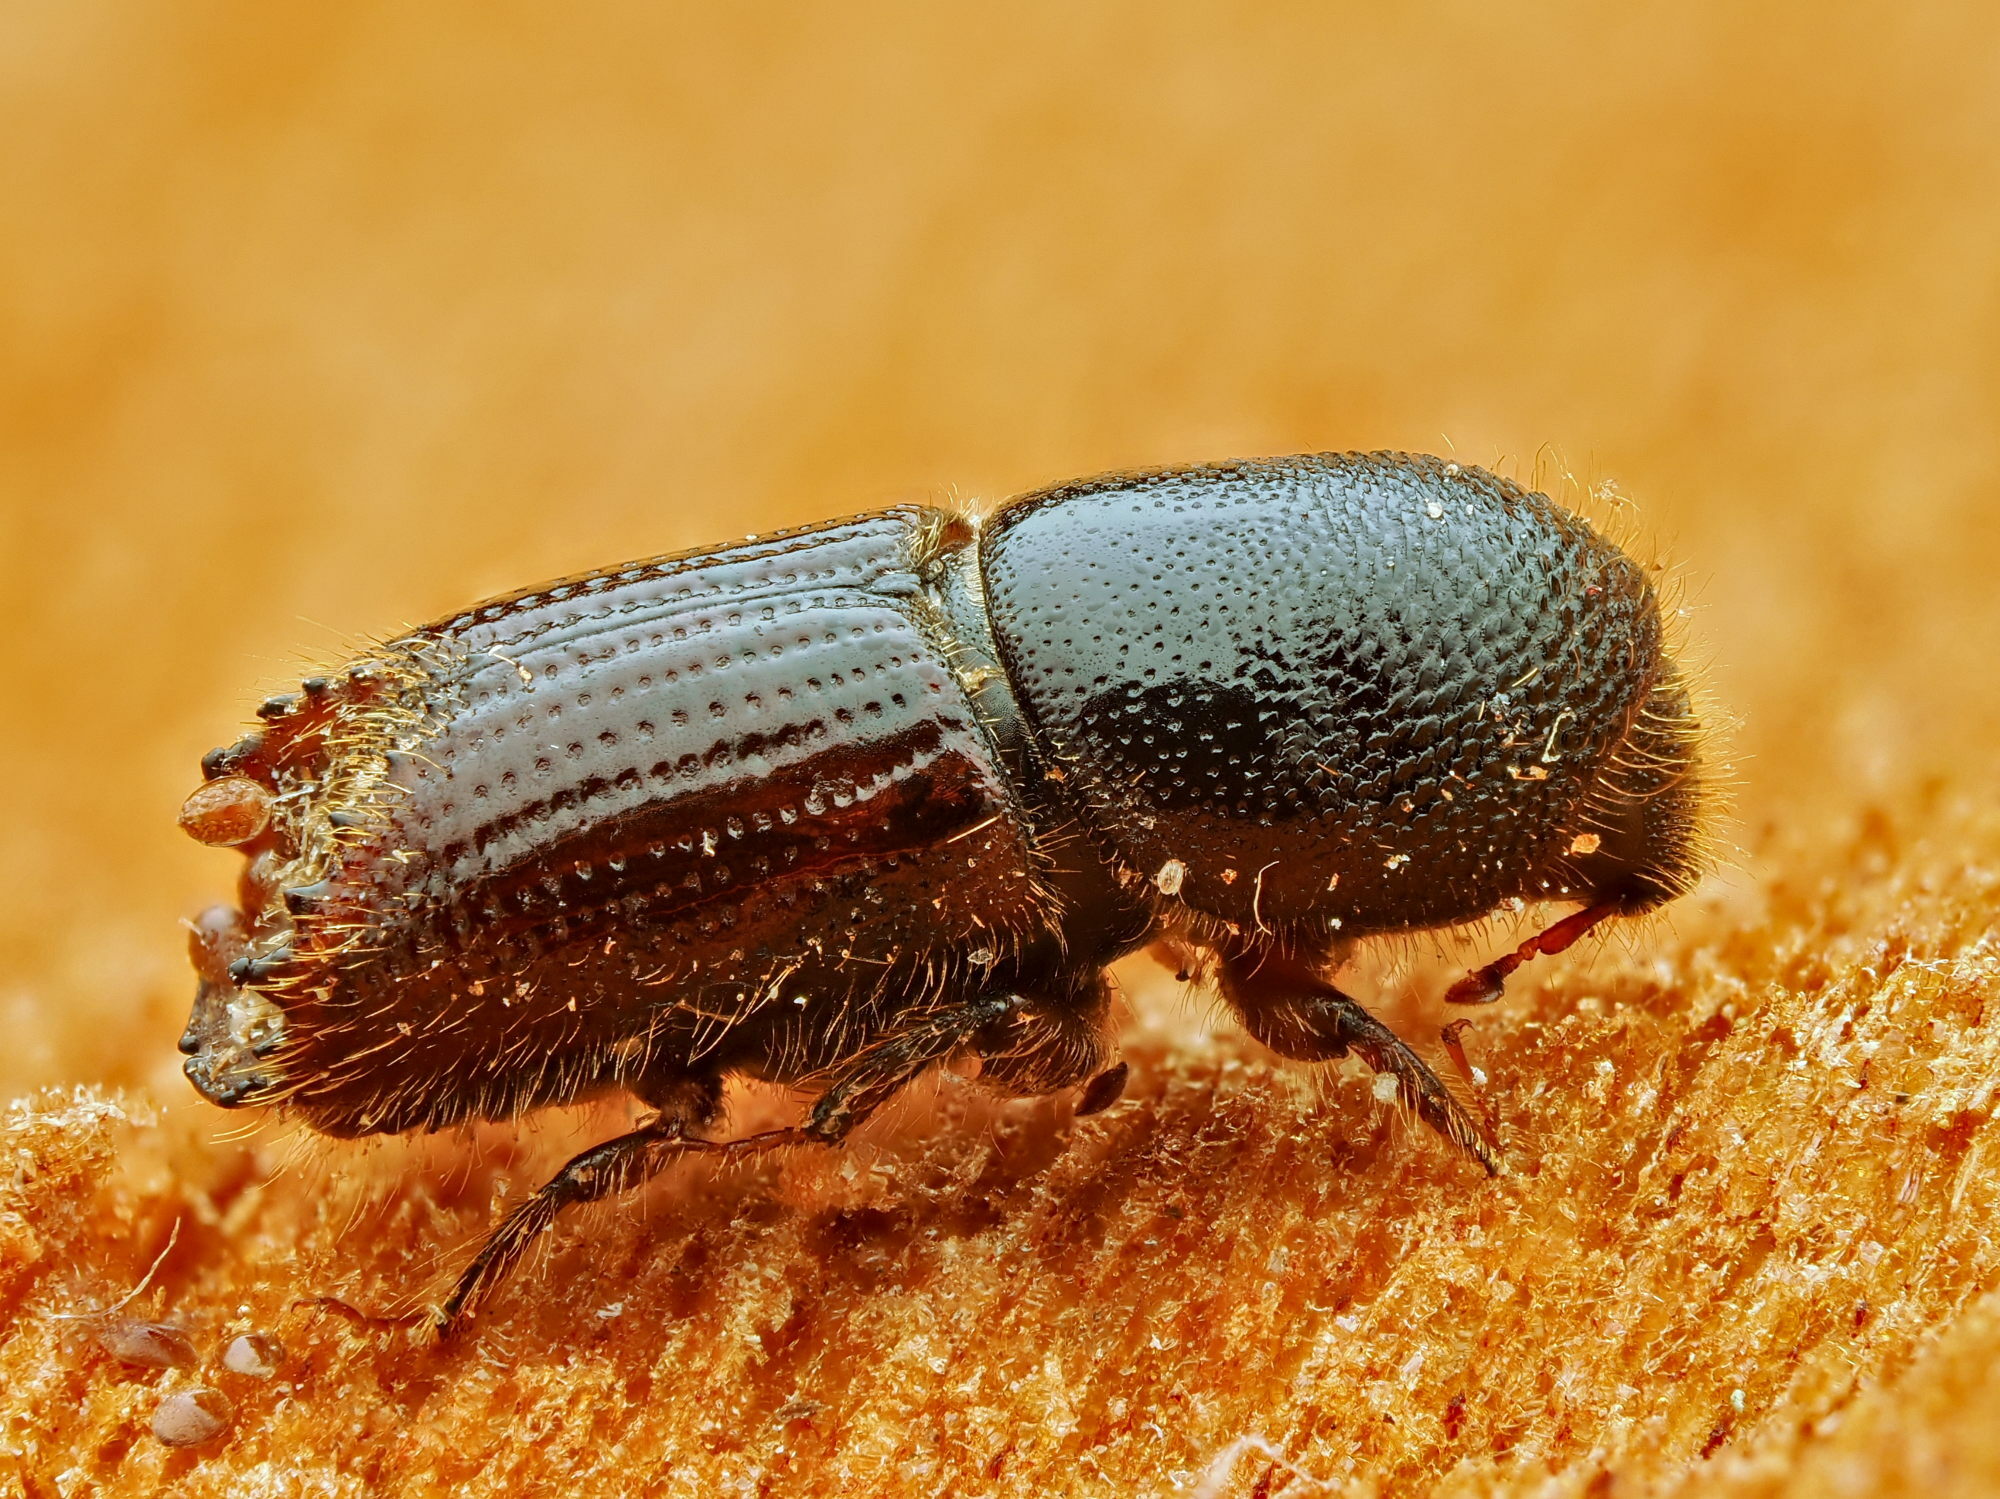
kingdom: Animalia
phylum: Arthropoda
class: Insecta
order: Coleoptera
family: Curculionidae
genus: Ips
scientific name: Ips sexdentatus
